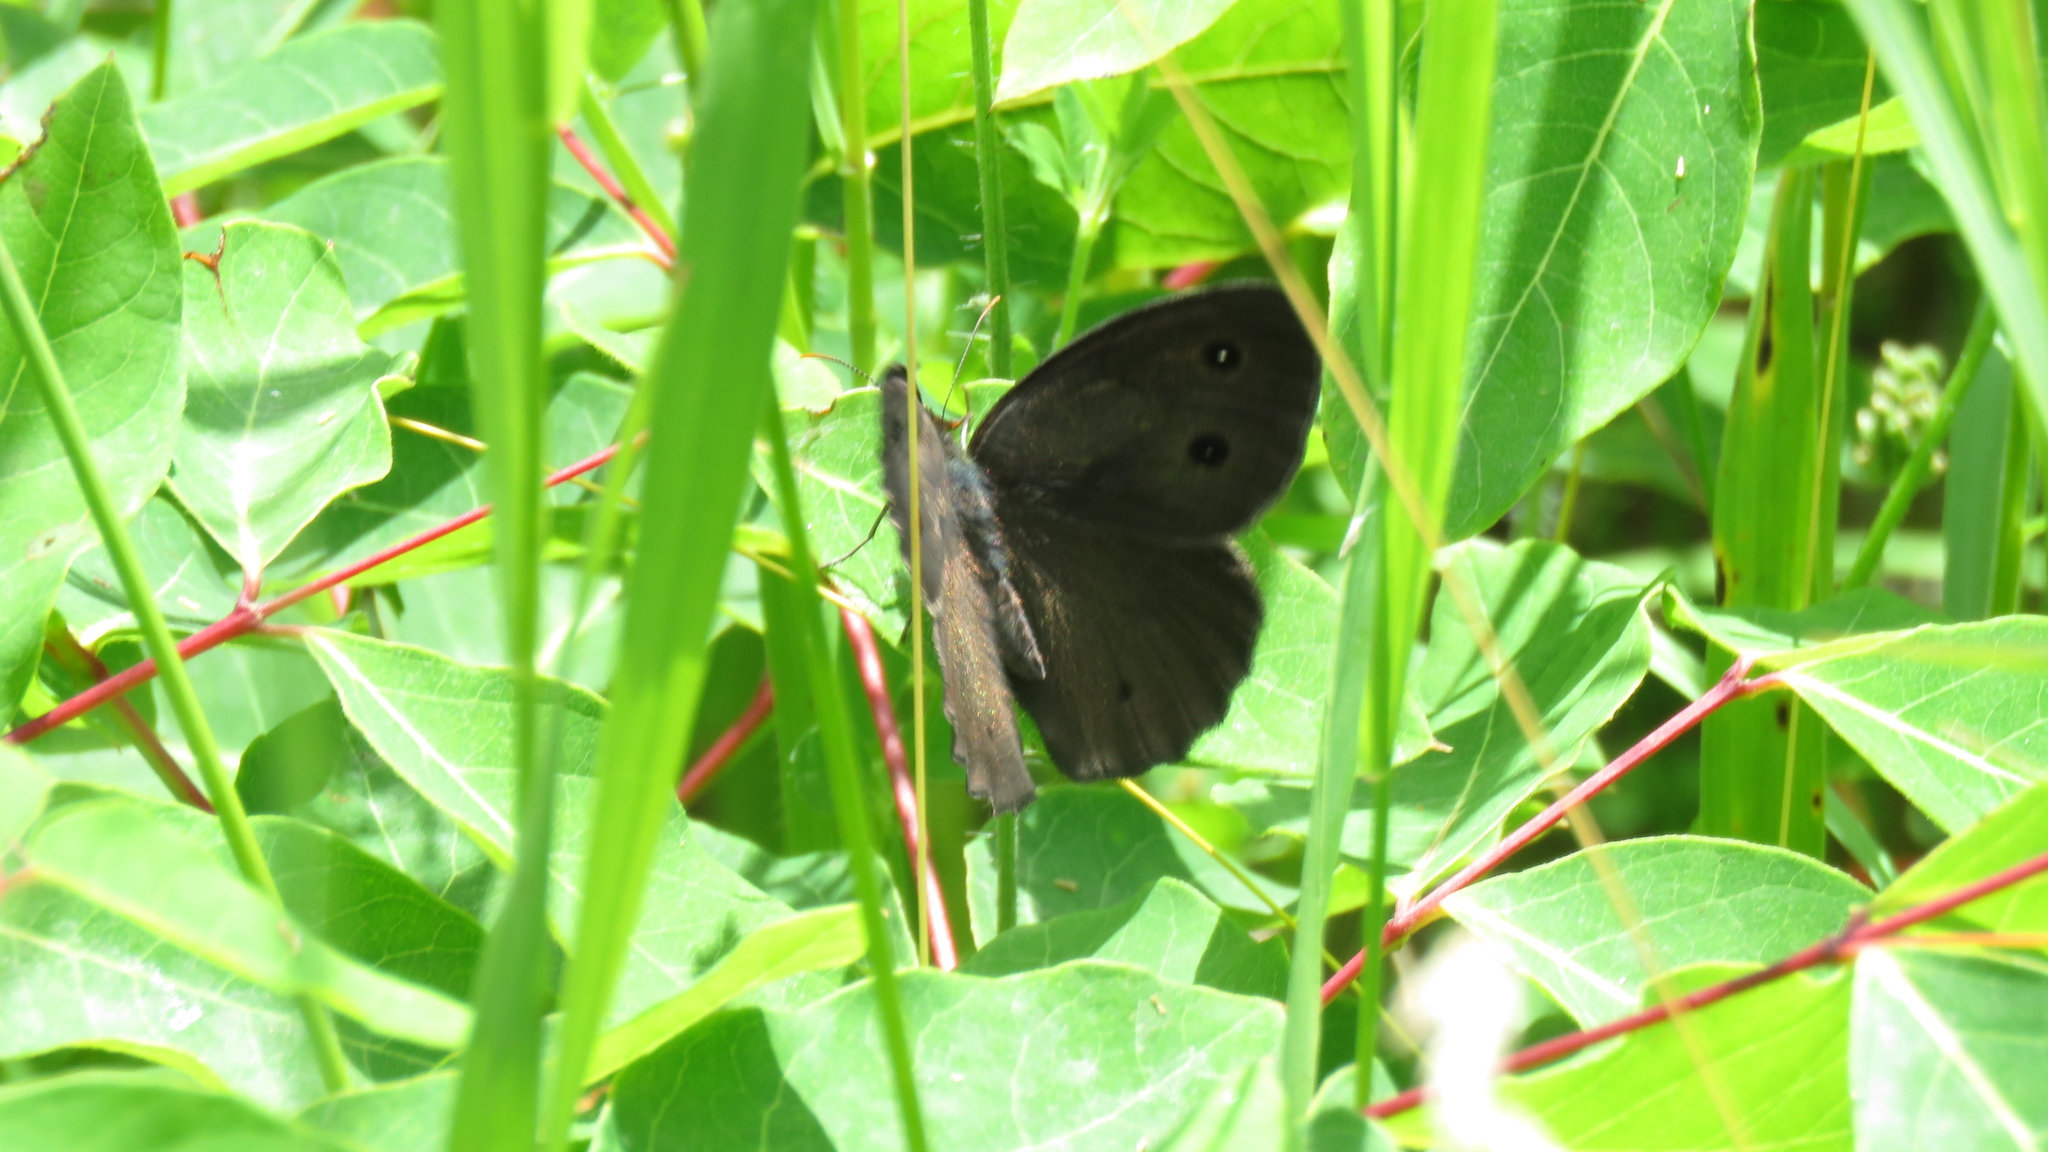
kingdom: Animalia
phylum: Arthropoda
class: Insecta
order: Lepidoptera
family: Nymphalidae
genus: Cercyonis
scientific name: Cercyonis pegala
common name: Common wood-nymph
